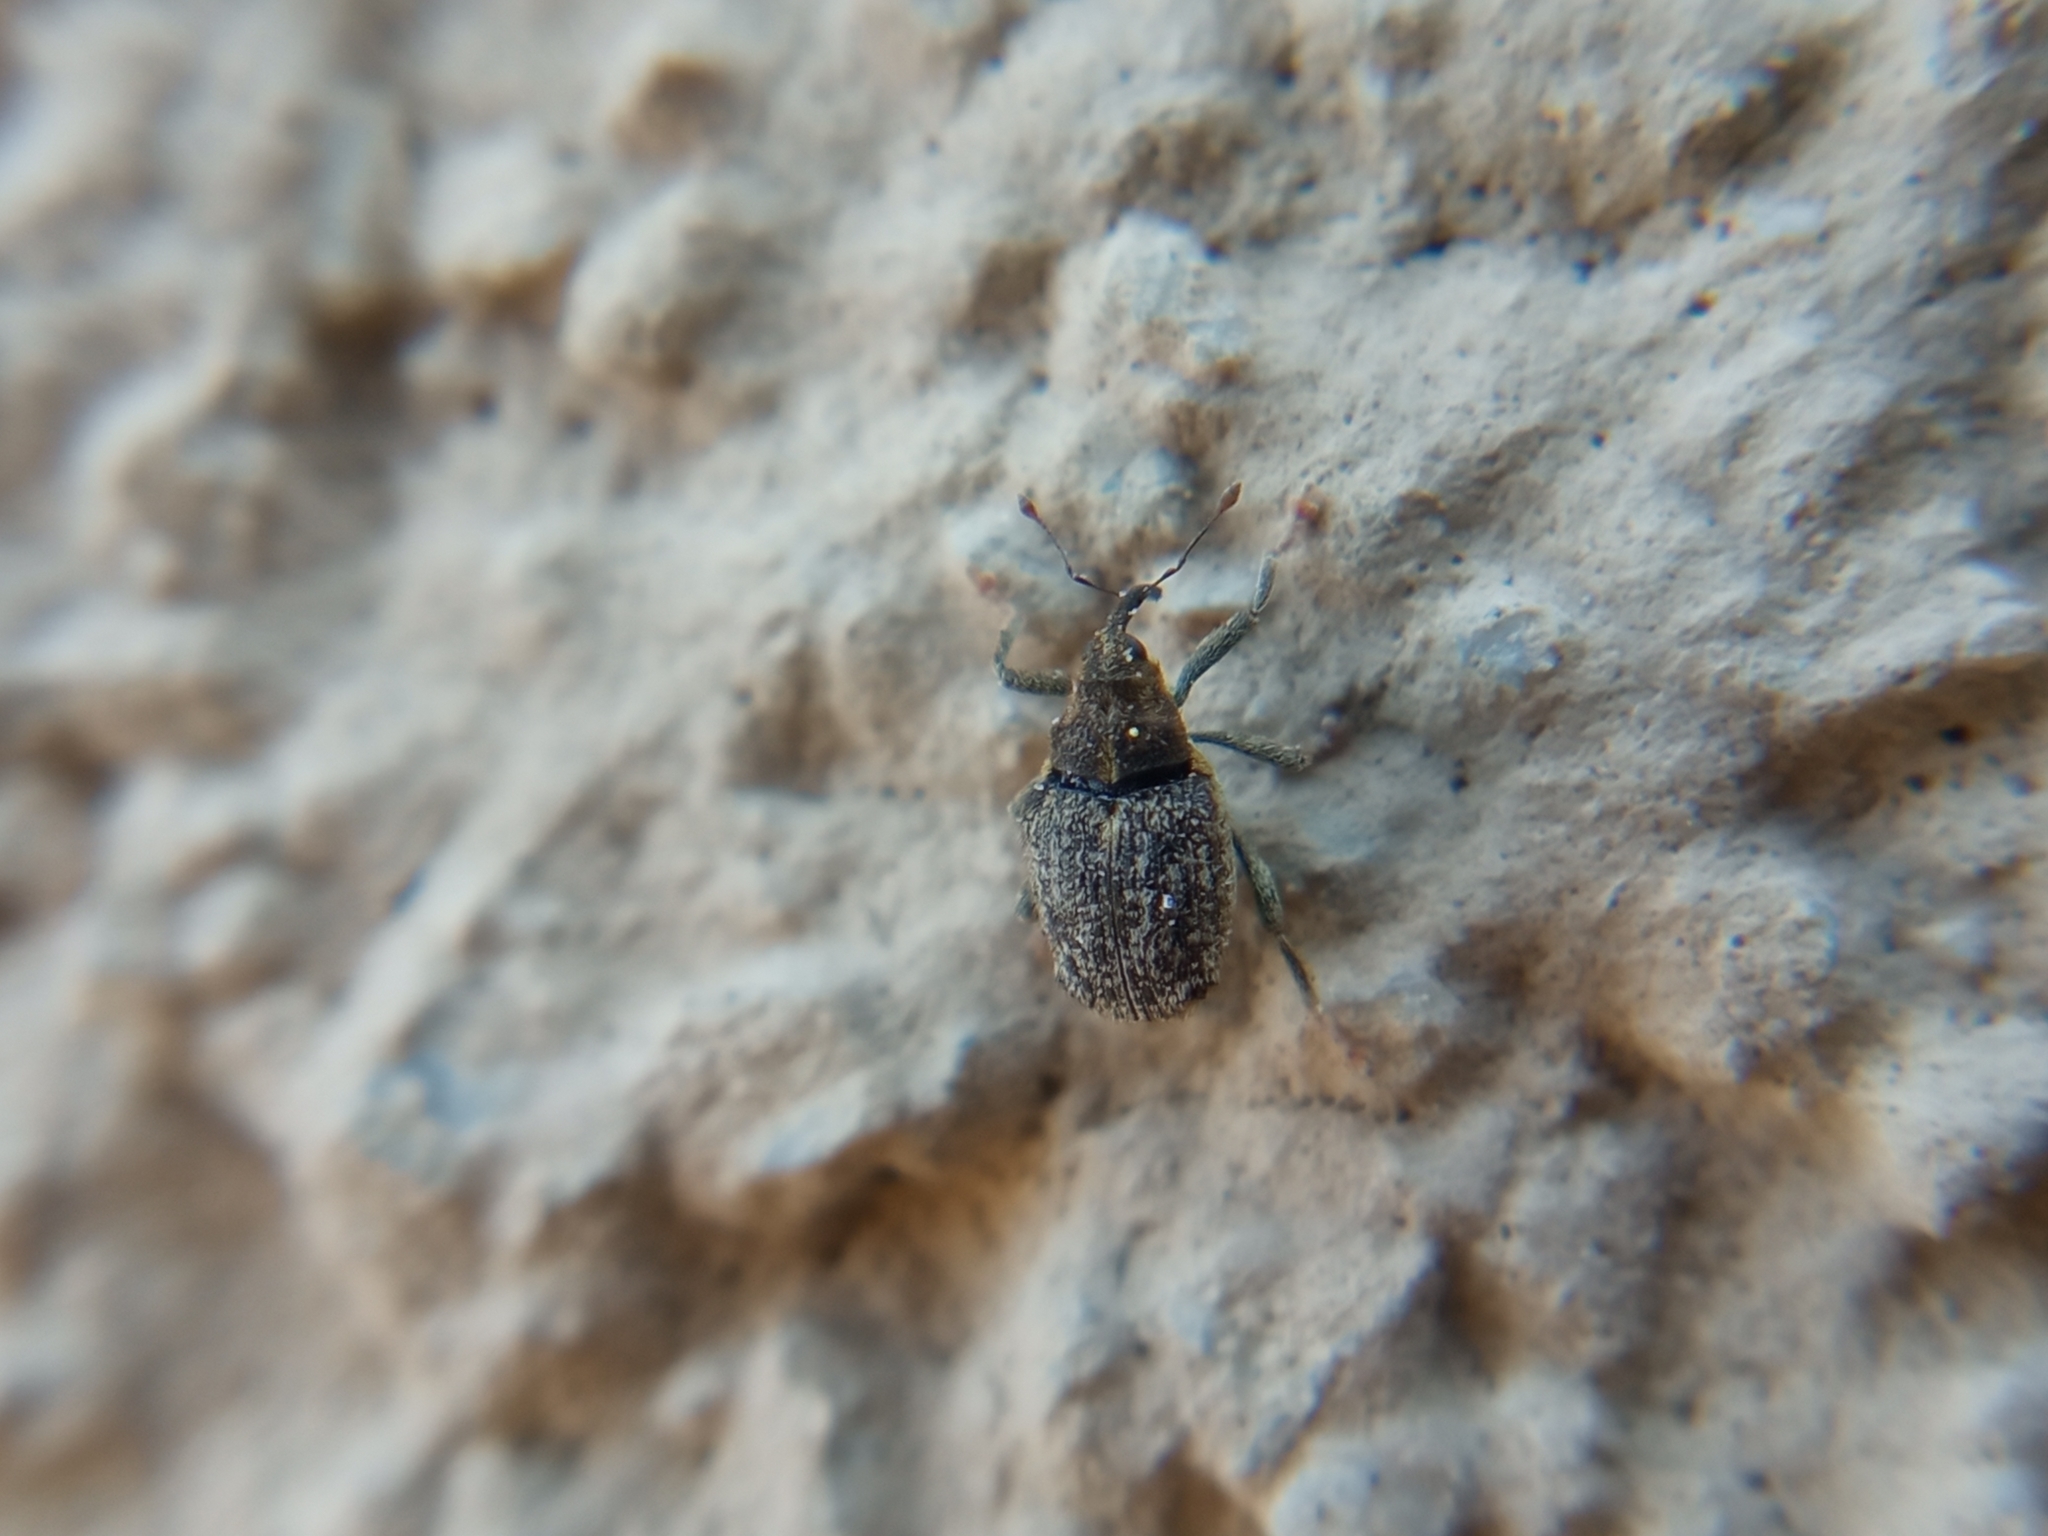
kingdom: Animalia
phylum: Arthropoda
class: Insecta
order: Coleoptera
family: Curculionidae
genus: Ceutorhynchus
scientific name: Ceutorhynchus pallidactylus
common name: Cabbage stem weavil
